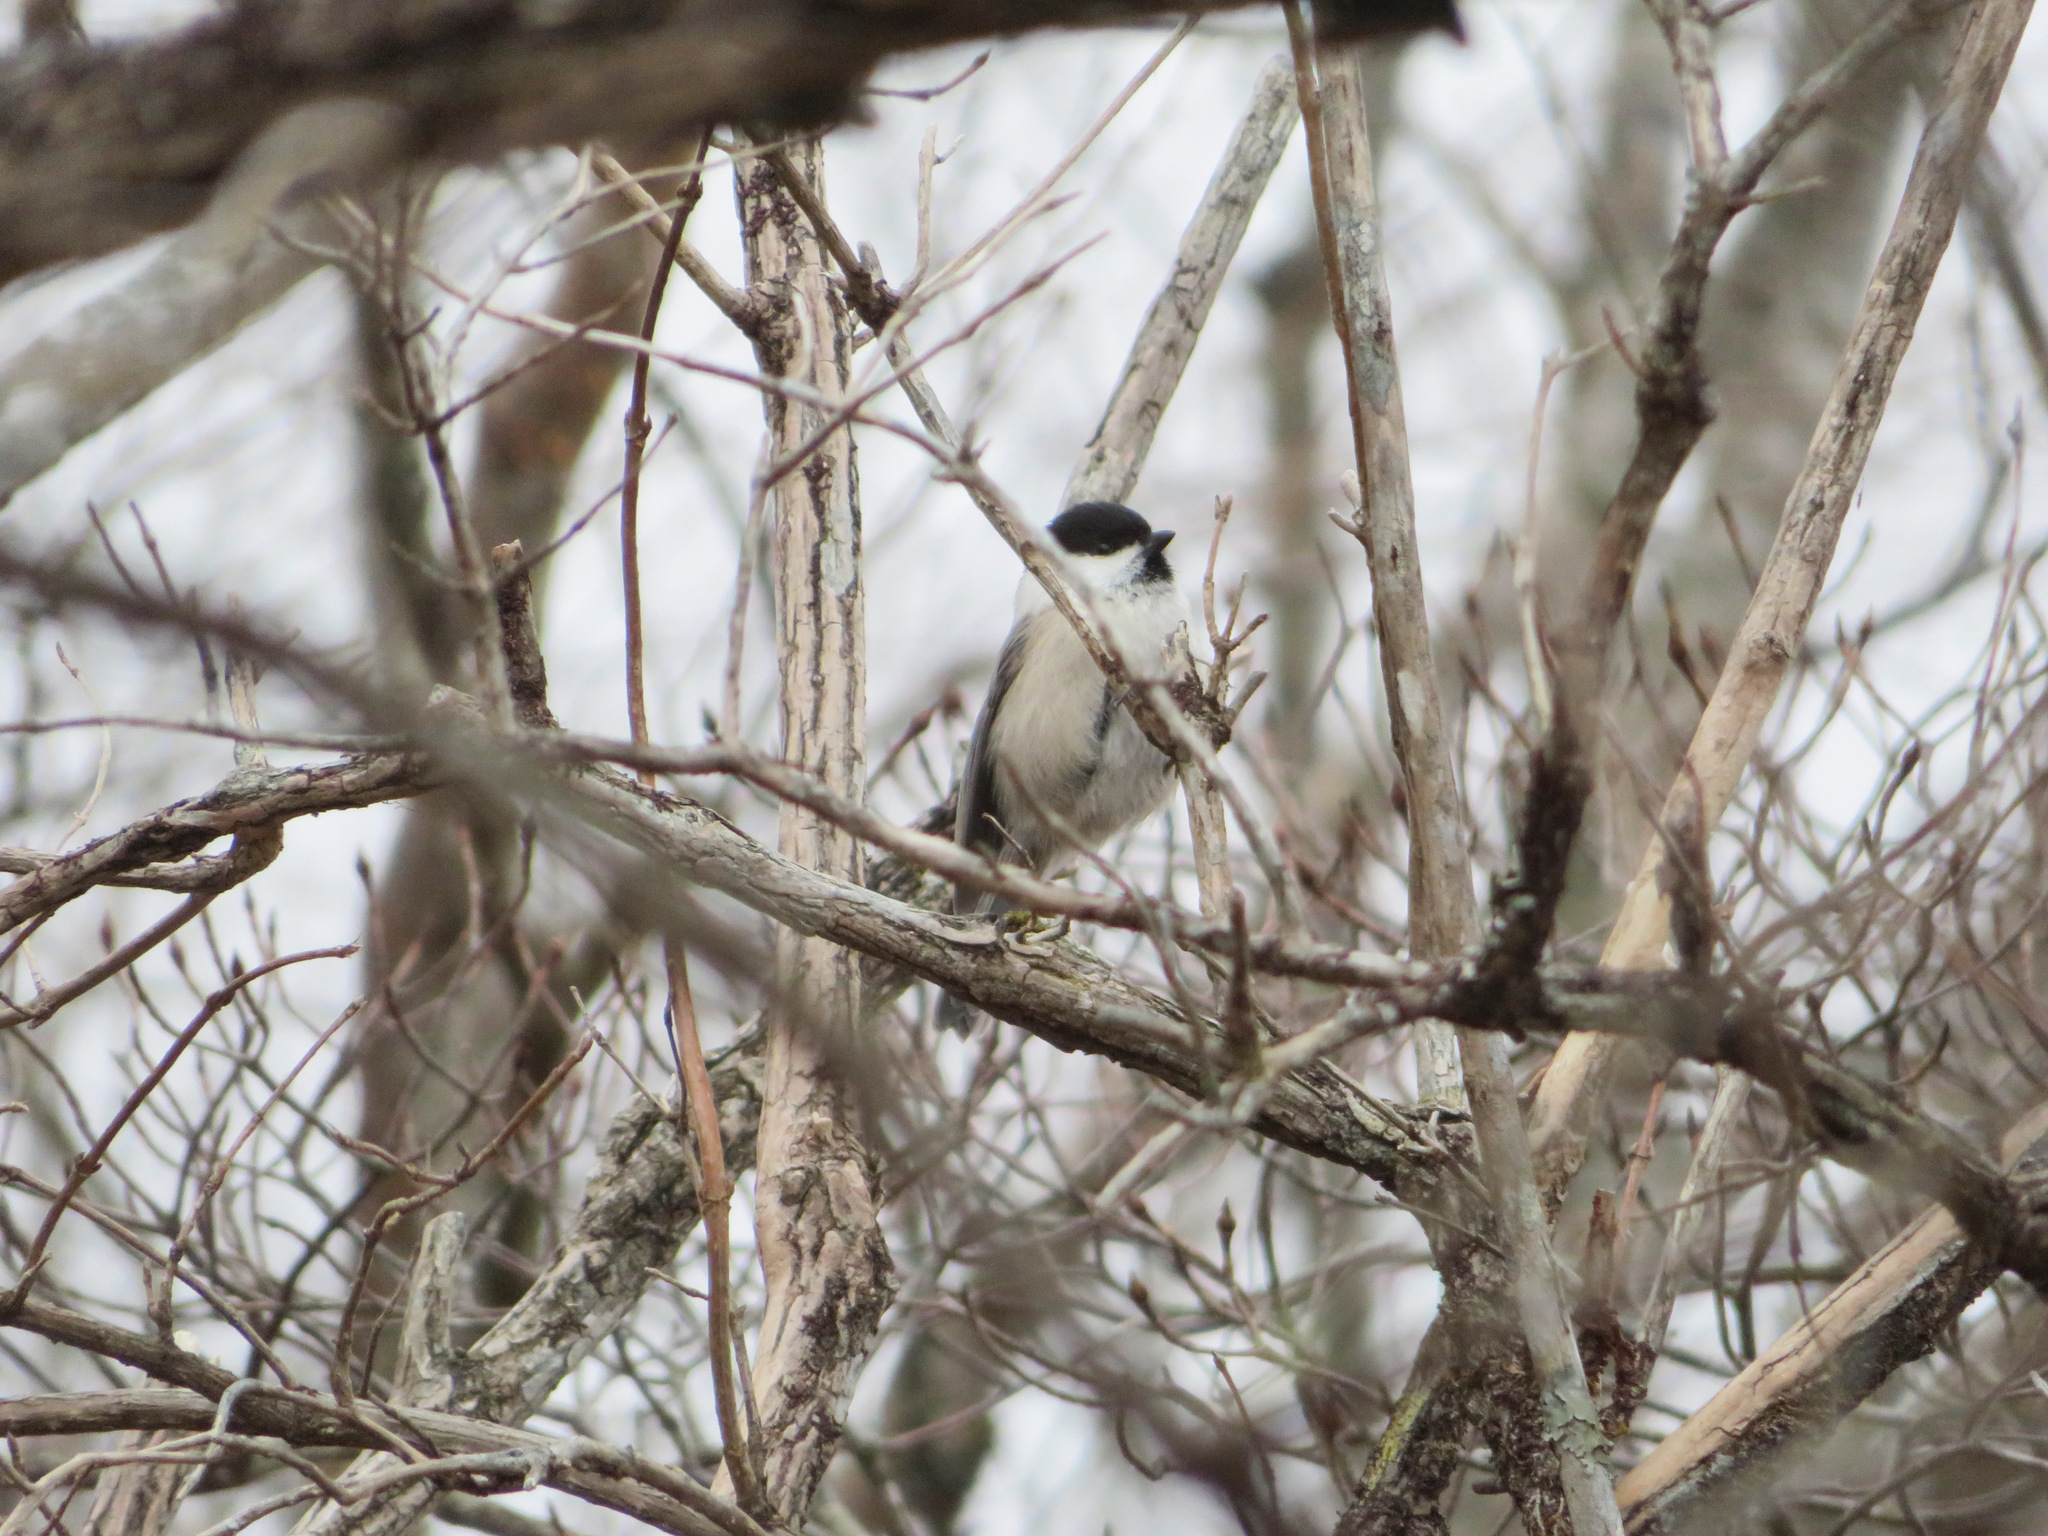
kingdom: Animalia
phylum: Chordata
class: Aves
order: Passeriformes
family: Paridae
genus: Poecile
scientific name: Poecile montanus
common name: Willow tit
